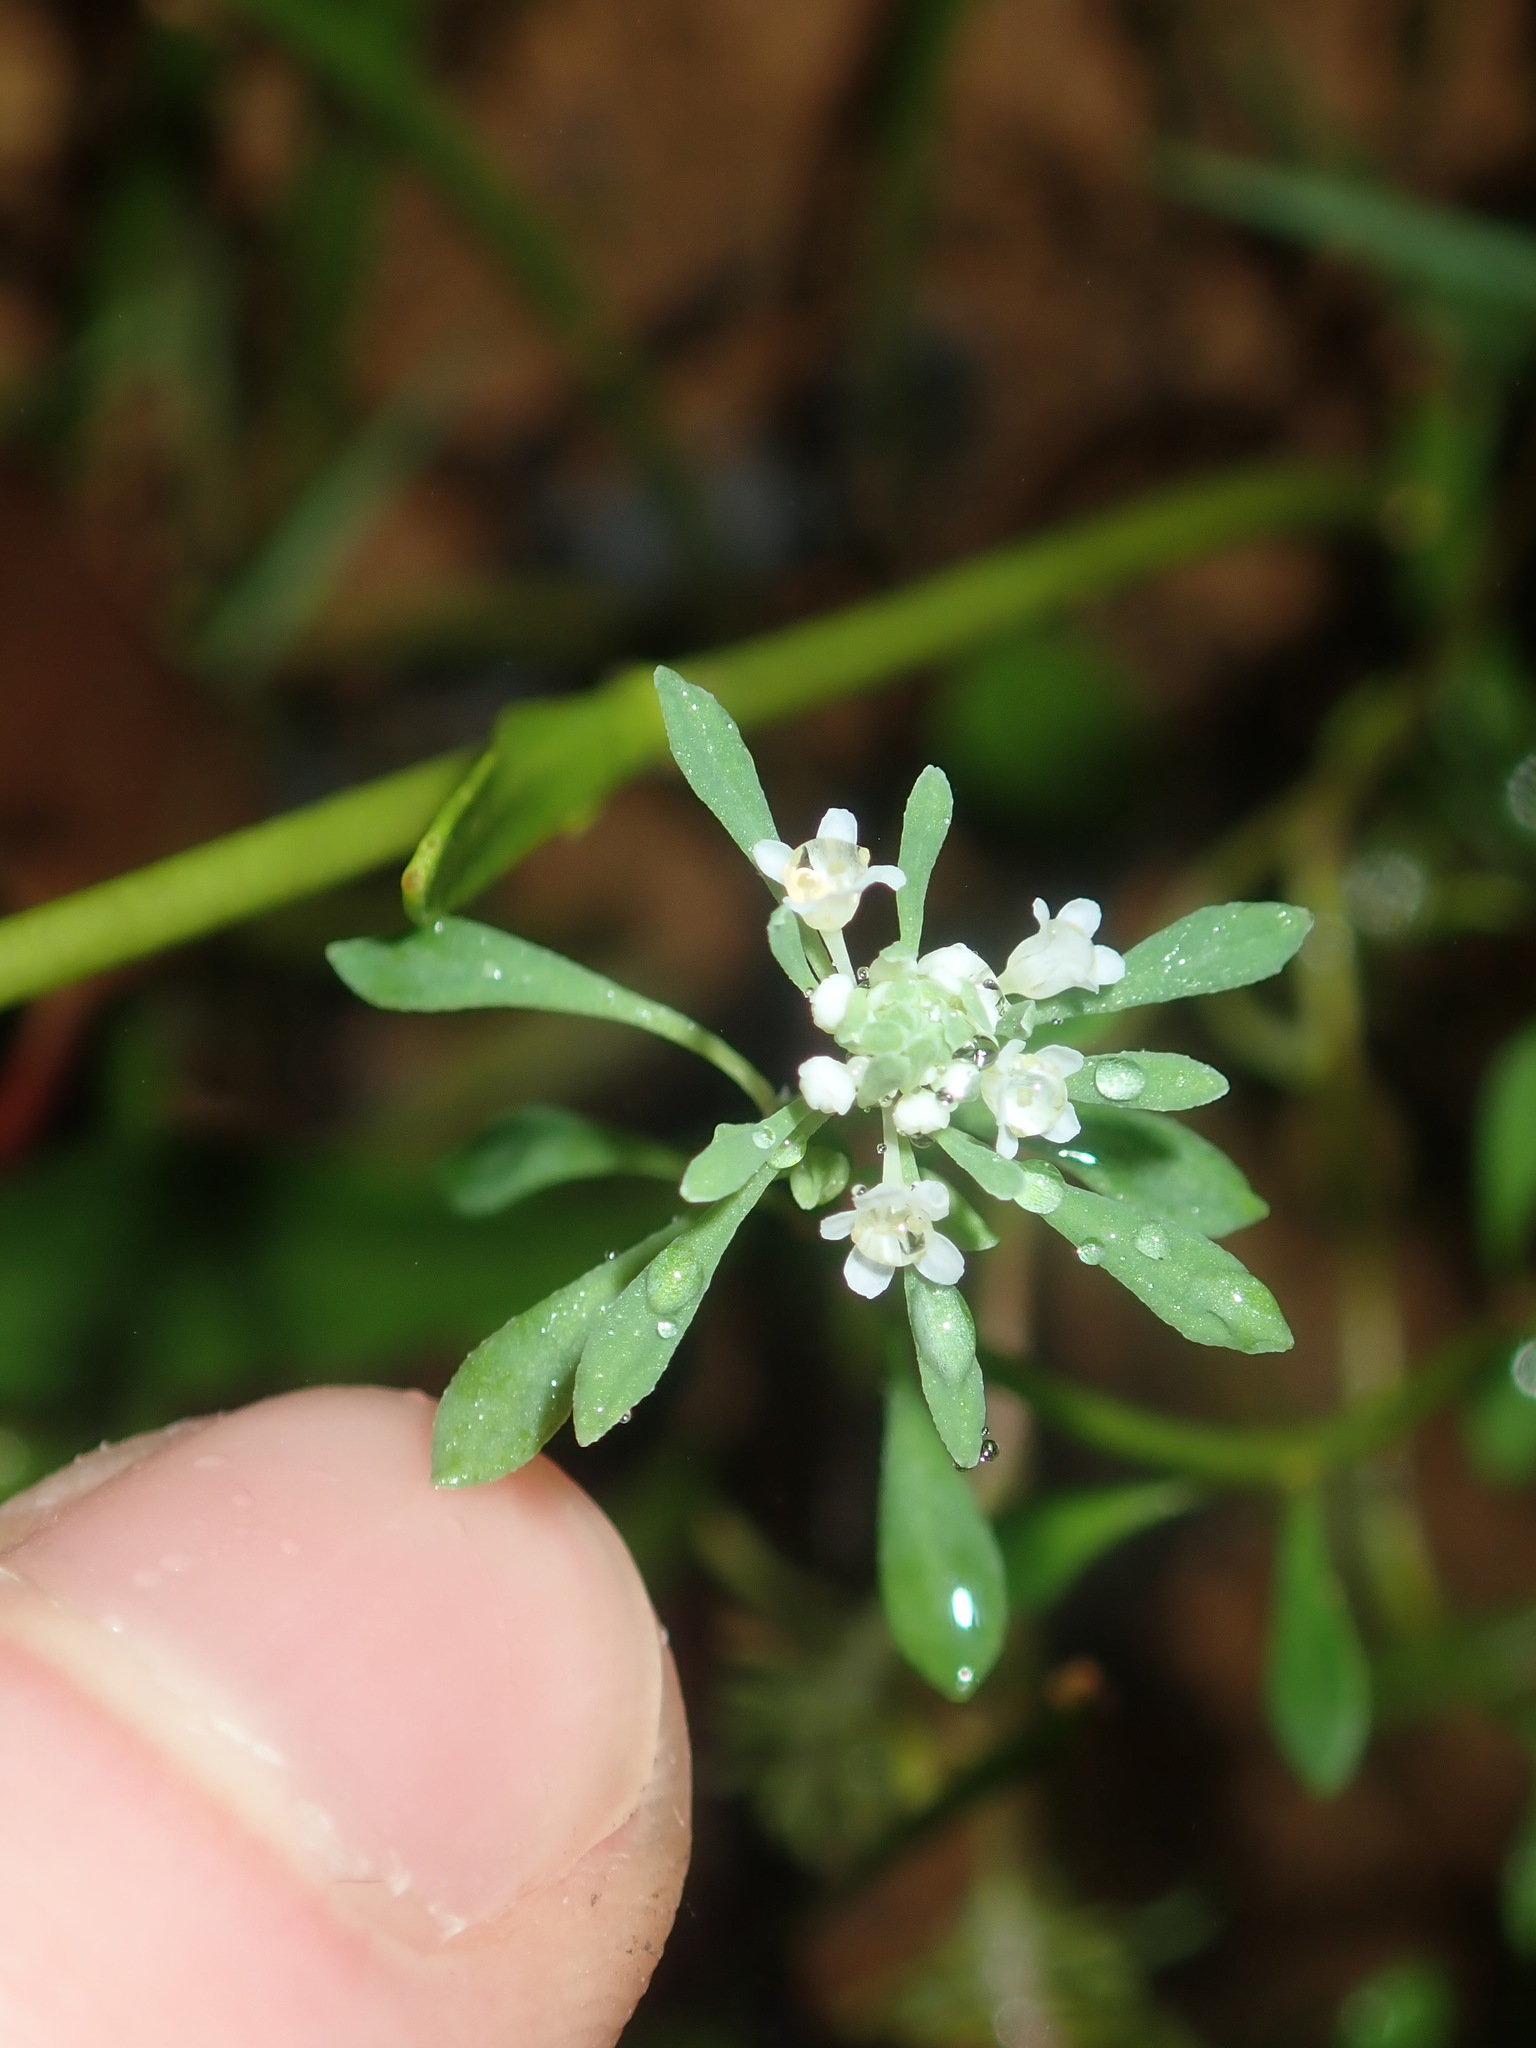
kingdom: Plantae
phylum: Tracheophyta
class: Magnoliopsida
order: Malpighiales
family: Phyllanthaceae
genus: Poranthera
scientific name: Poranthera microphylla
